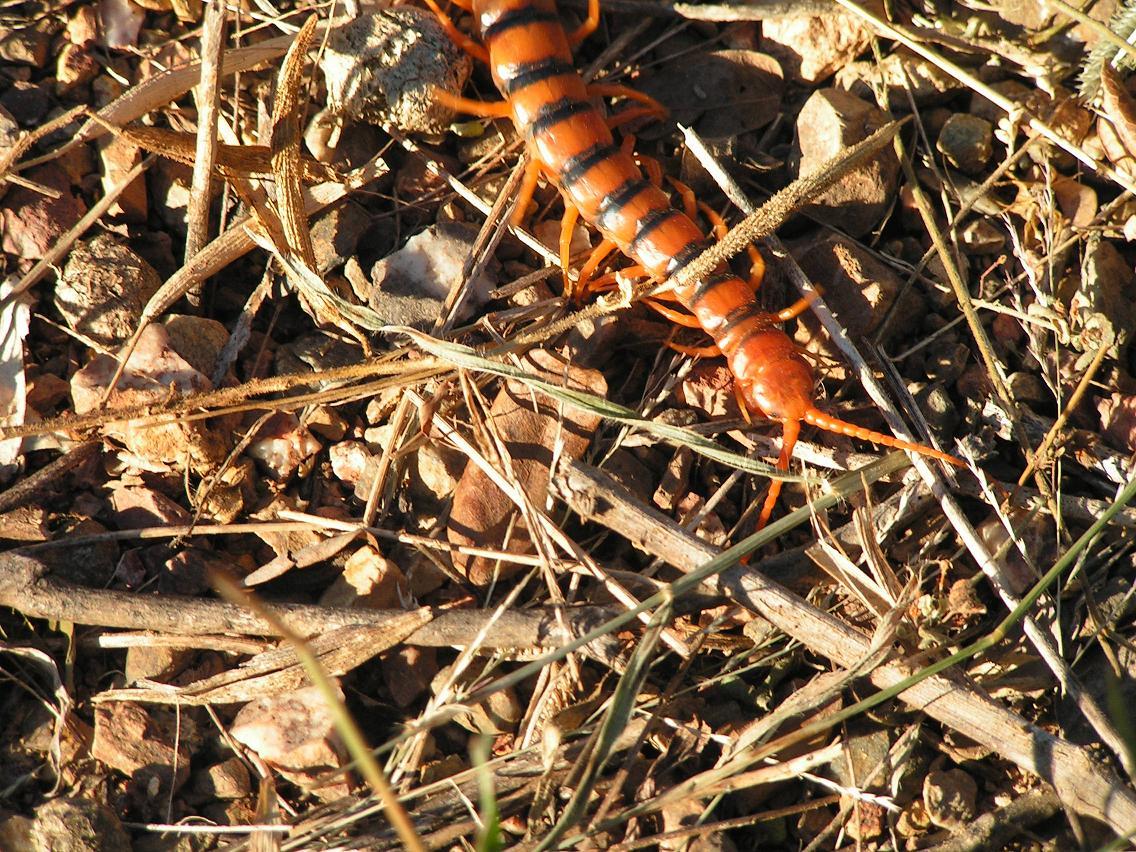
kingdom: Animalia
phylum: Arthropoda
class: Chilopoda
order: Scolopendromorpha
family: Scolopendridae
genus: Scolopendra
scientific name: Scolopendra heros
